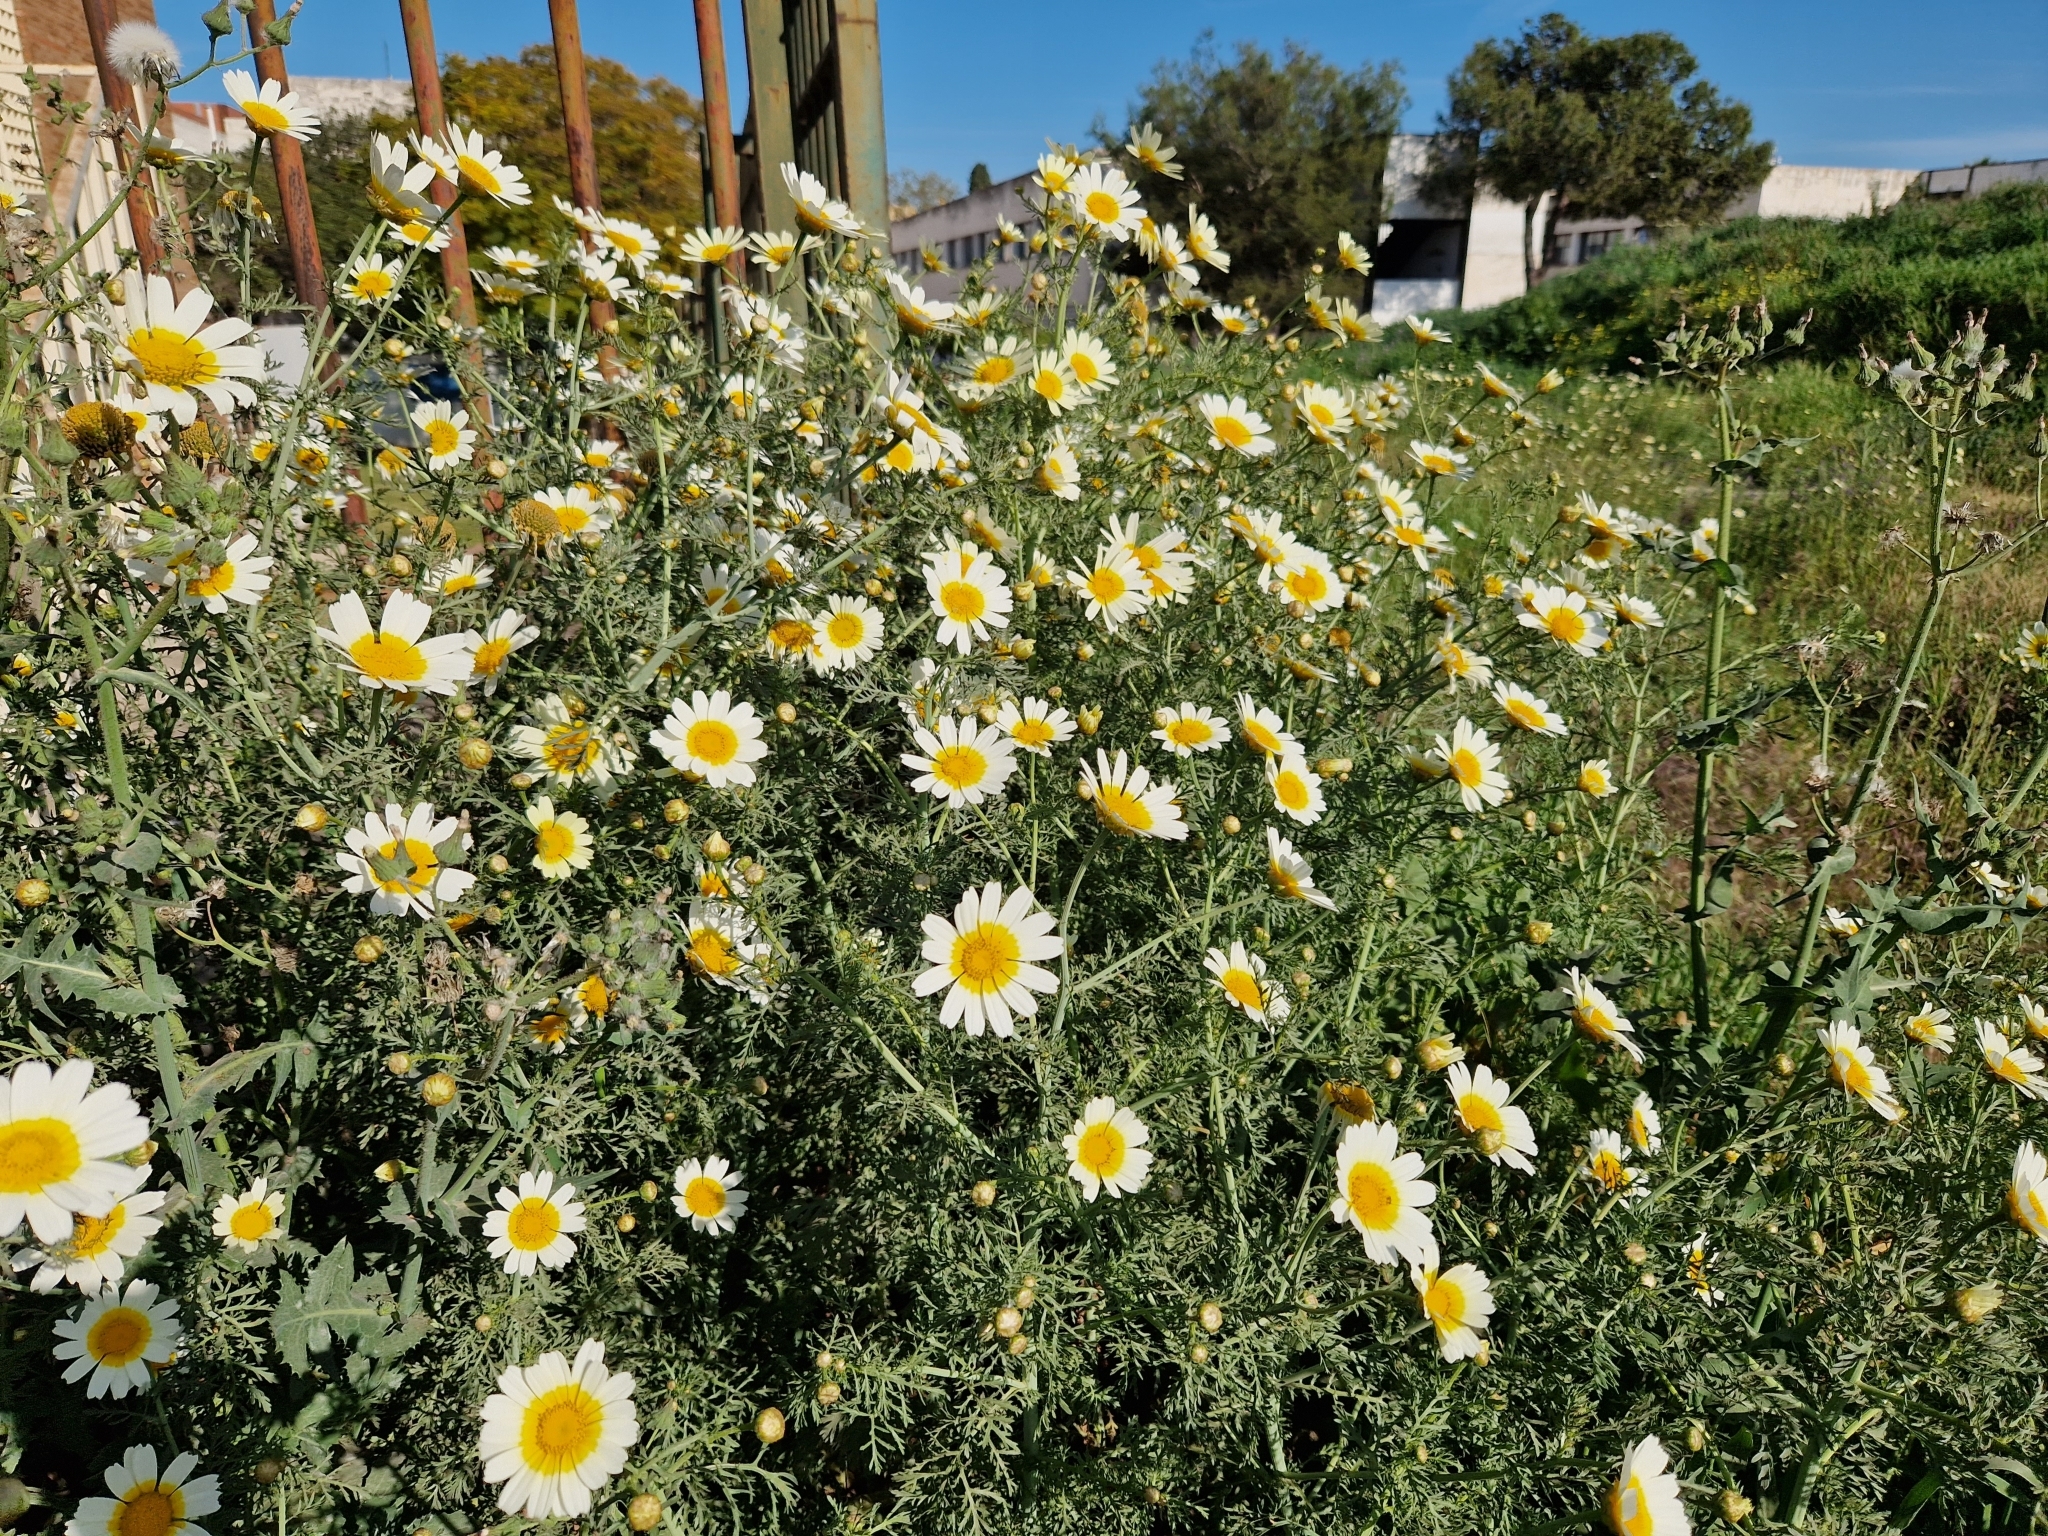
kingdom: Plantae
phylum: Tracheophyta
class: Magnoliopsida
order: Asterales
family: Asteraceae
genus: Glebionis
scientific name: Glebionis coronaria
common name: Crowndaisy
